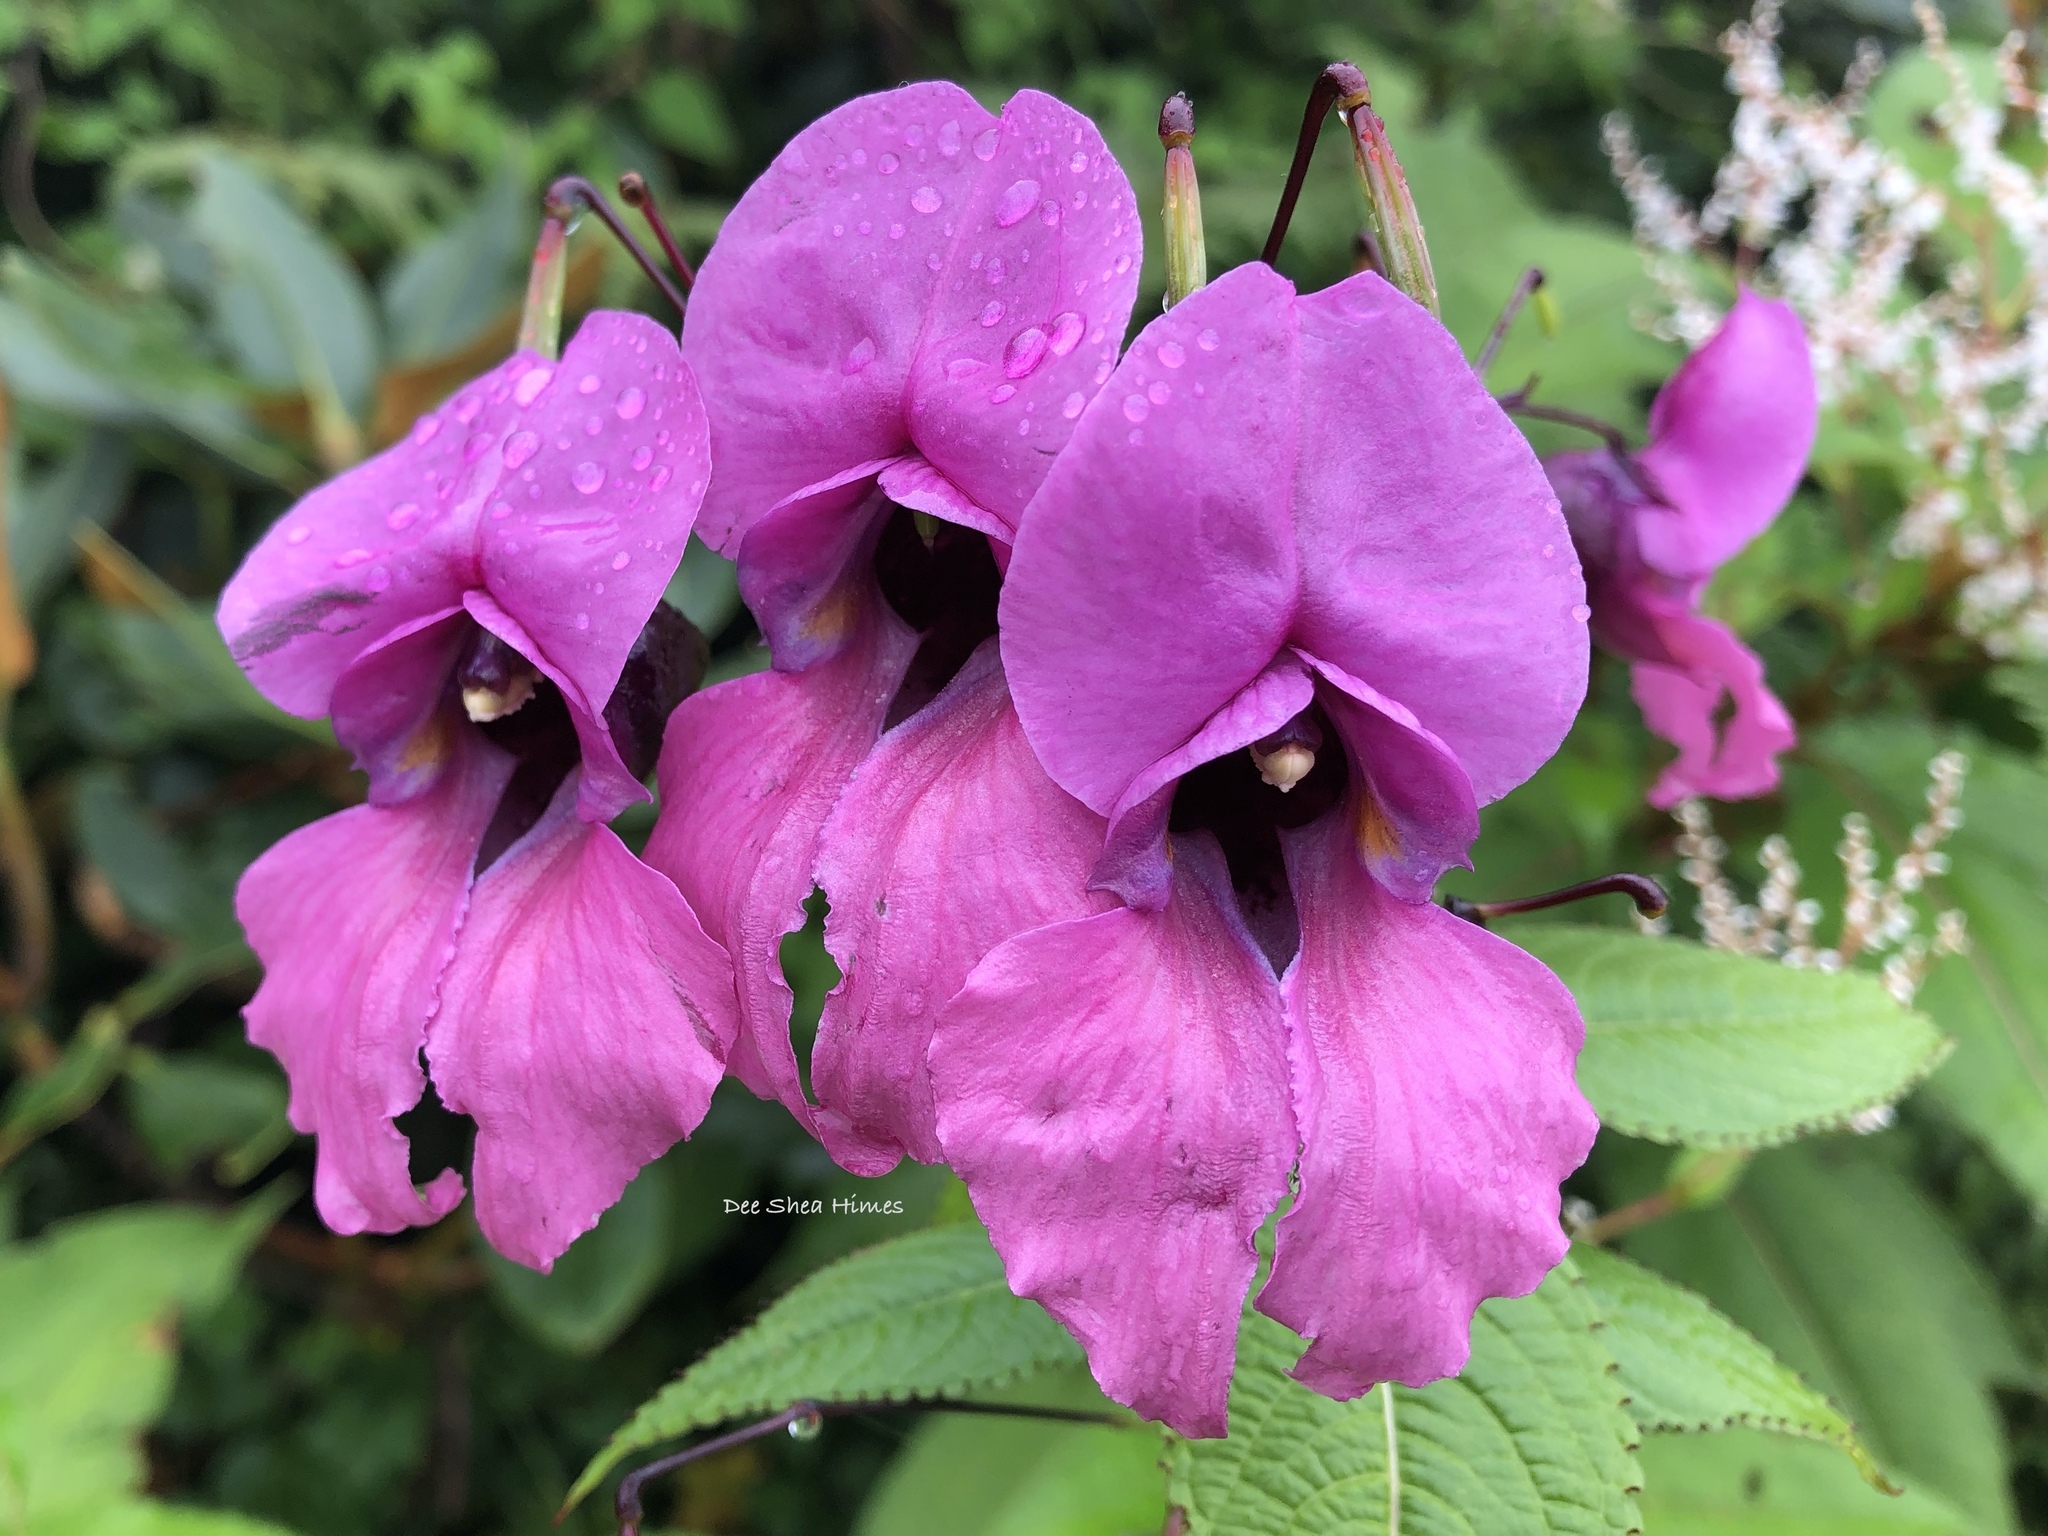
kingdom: Plantae
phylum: Tracheophyta
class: Magnoliopsida
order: Ericales
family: Balsaminaceae
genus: Impatiens
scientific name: Impatiens sulcata
